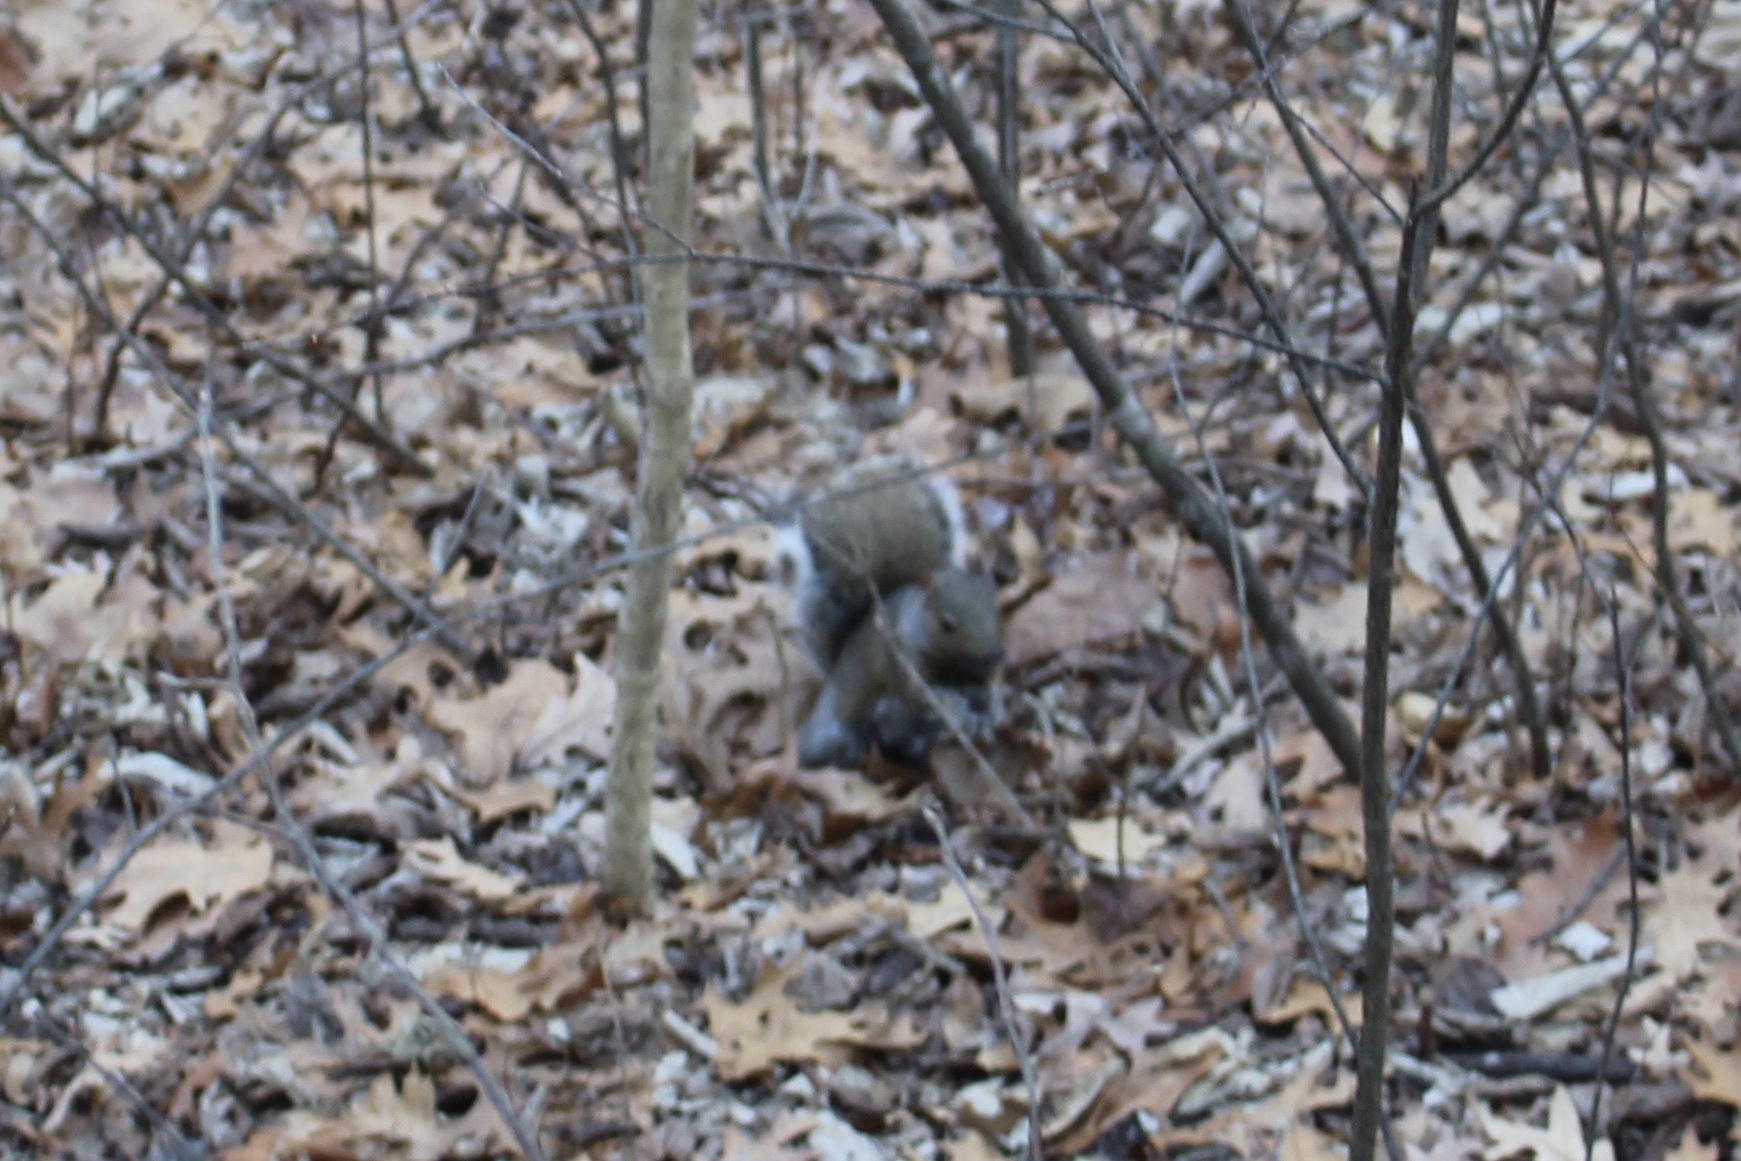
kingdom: Animalia
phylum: Chordata
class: Mammalia
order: Rodentia
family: Sciuridae
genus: Sciurus
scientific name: Sciurus carolinensis
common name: Eastern gray squirrel
